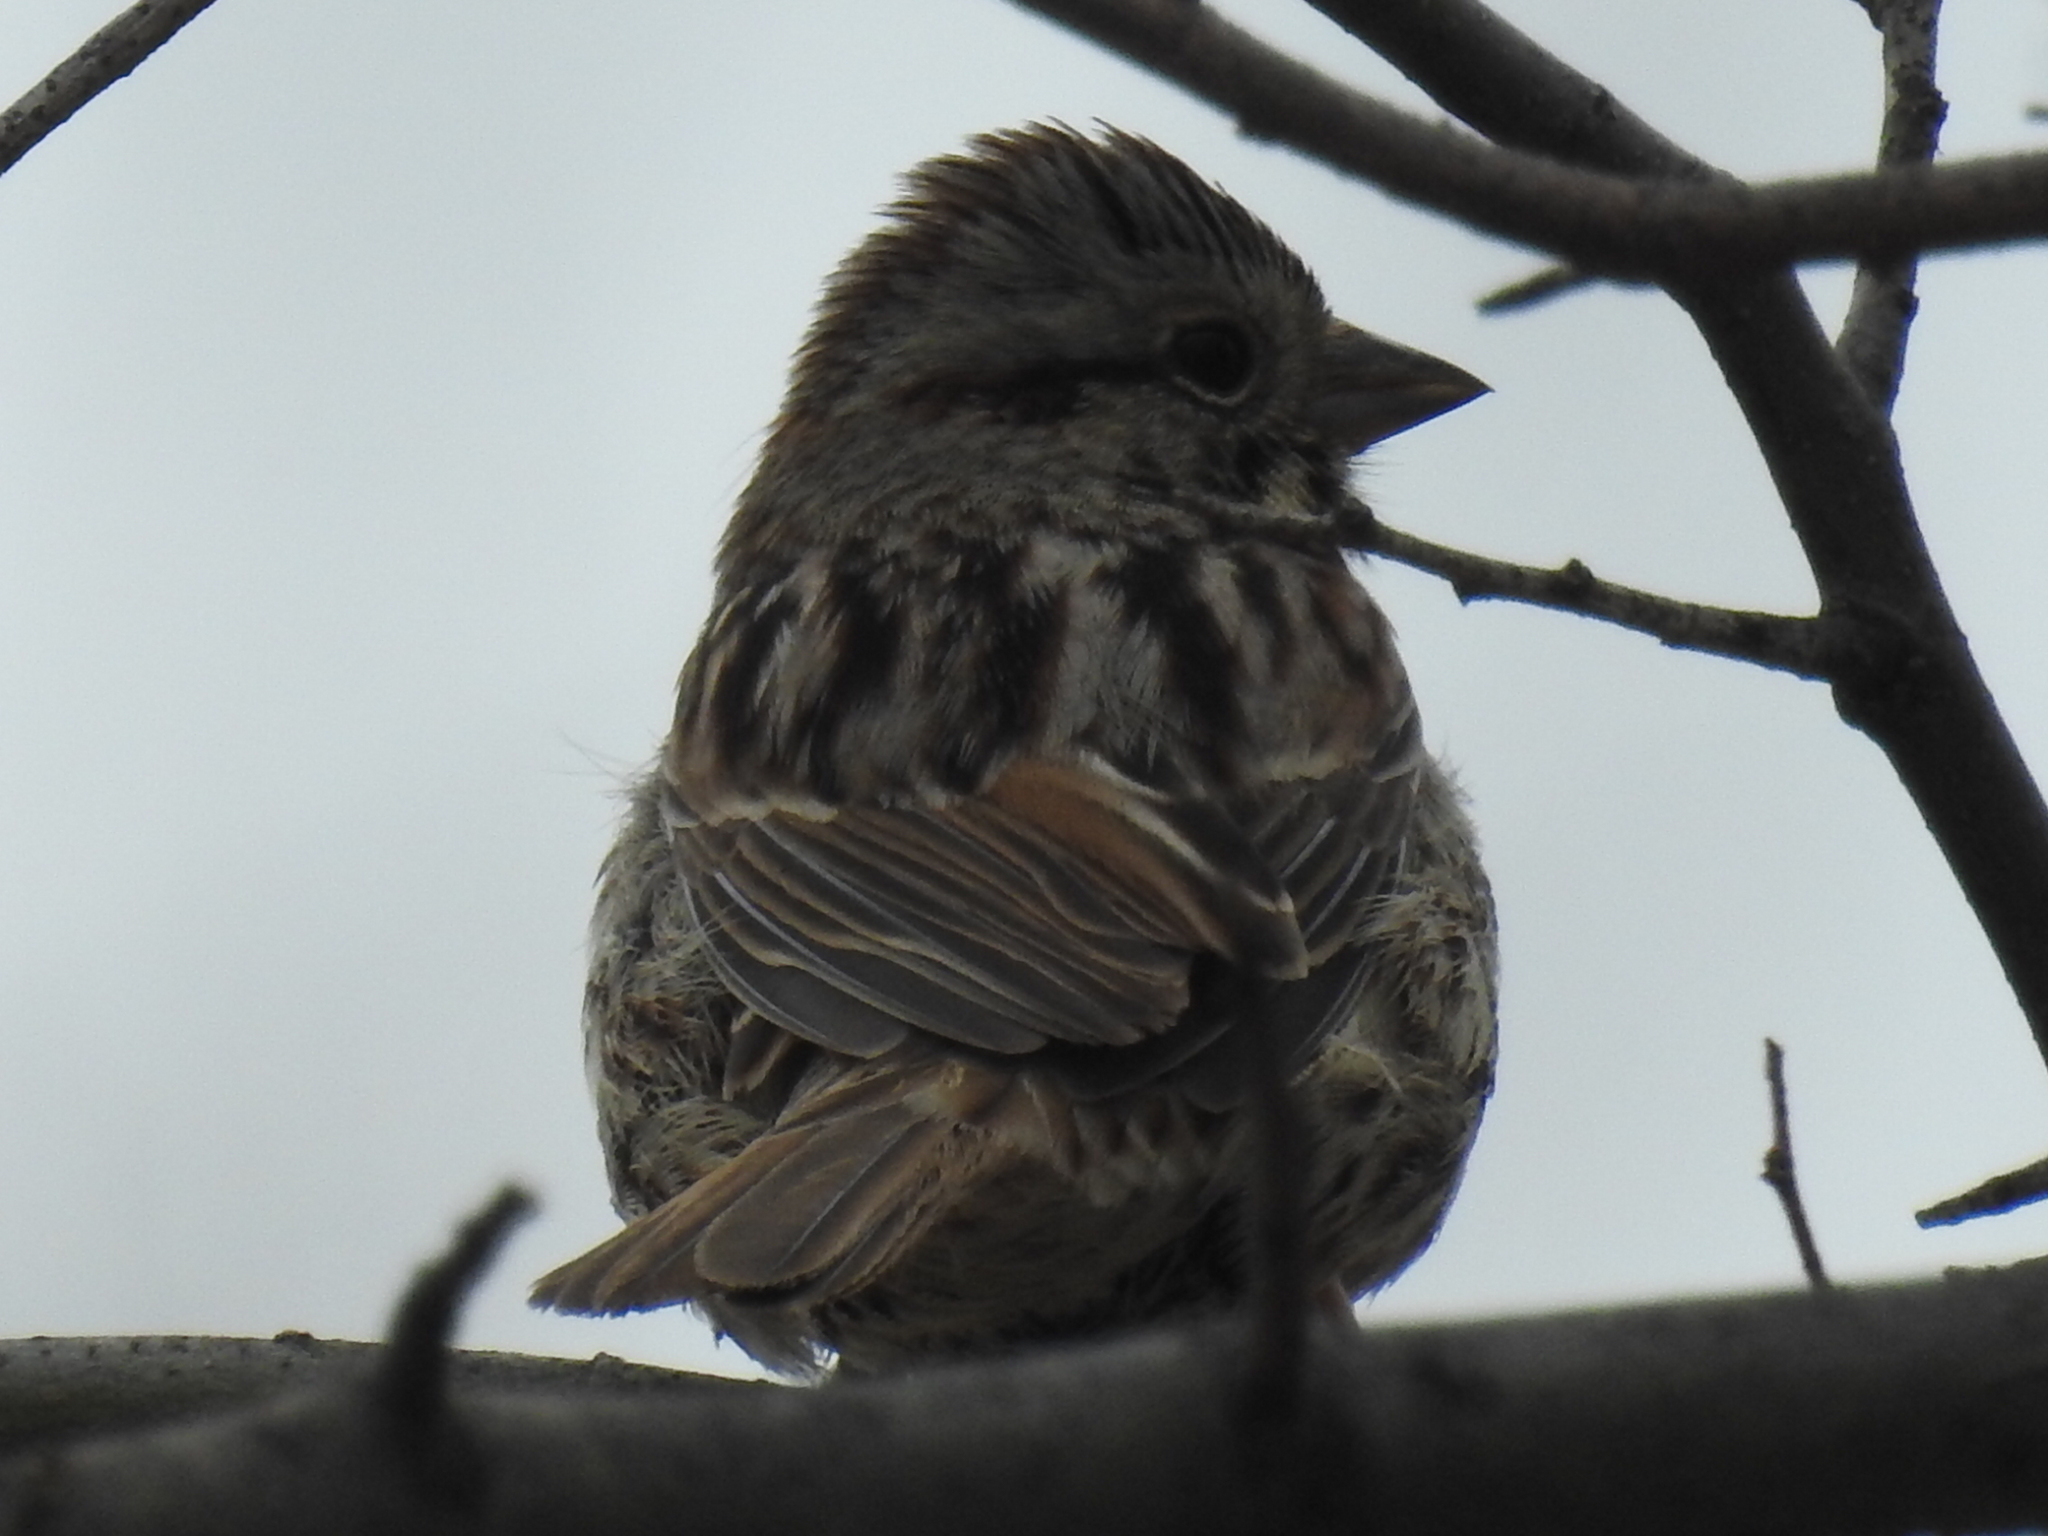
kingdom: Animalia
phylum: Chordata
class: Aves
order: Passeriformes
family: Passerellidae
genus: Melospiza
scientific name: Melospiza melodia
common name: Song sparrow
